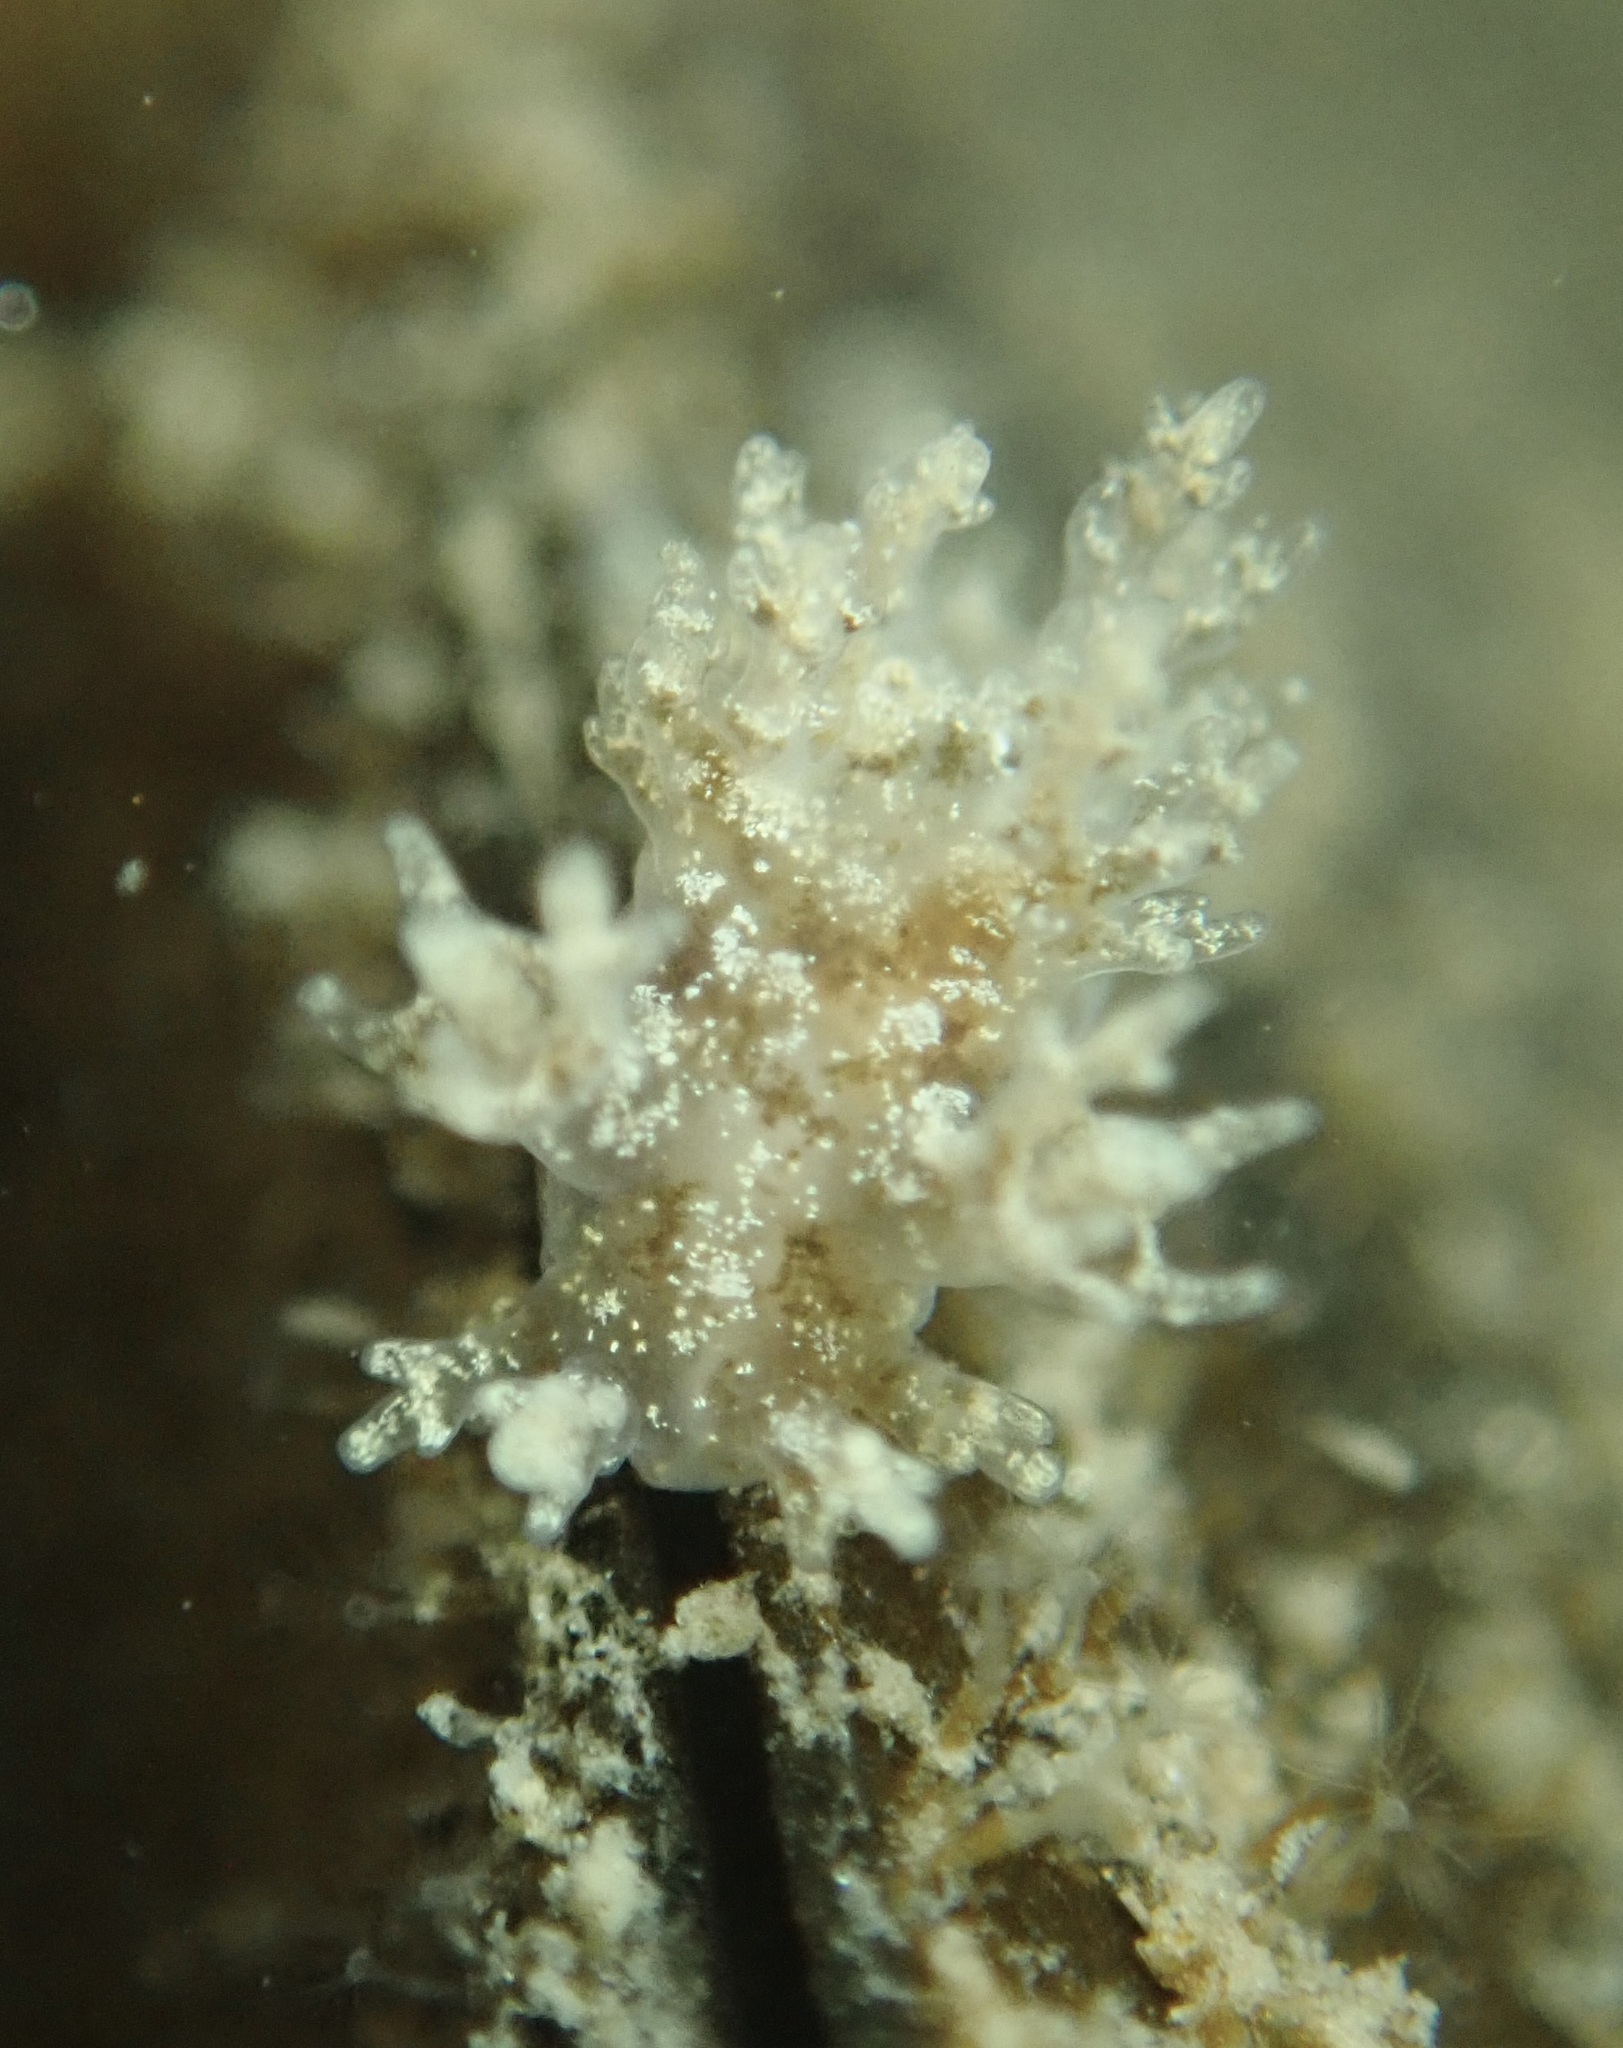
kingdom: Animalia
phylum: Mollusca
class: Gastropoda
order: Nudibranchia
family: Dendronotidae
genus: Dendronotus
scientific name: Dendronotus venustus
